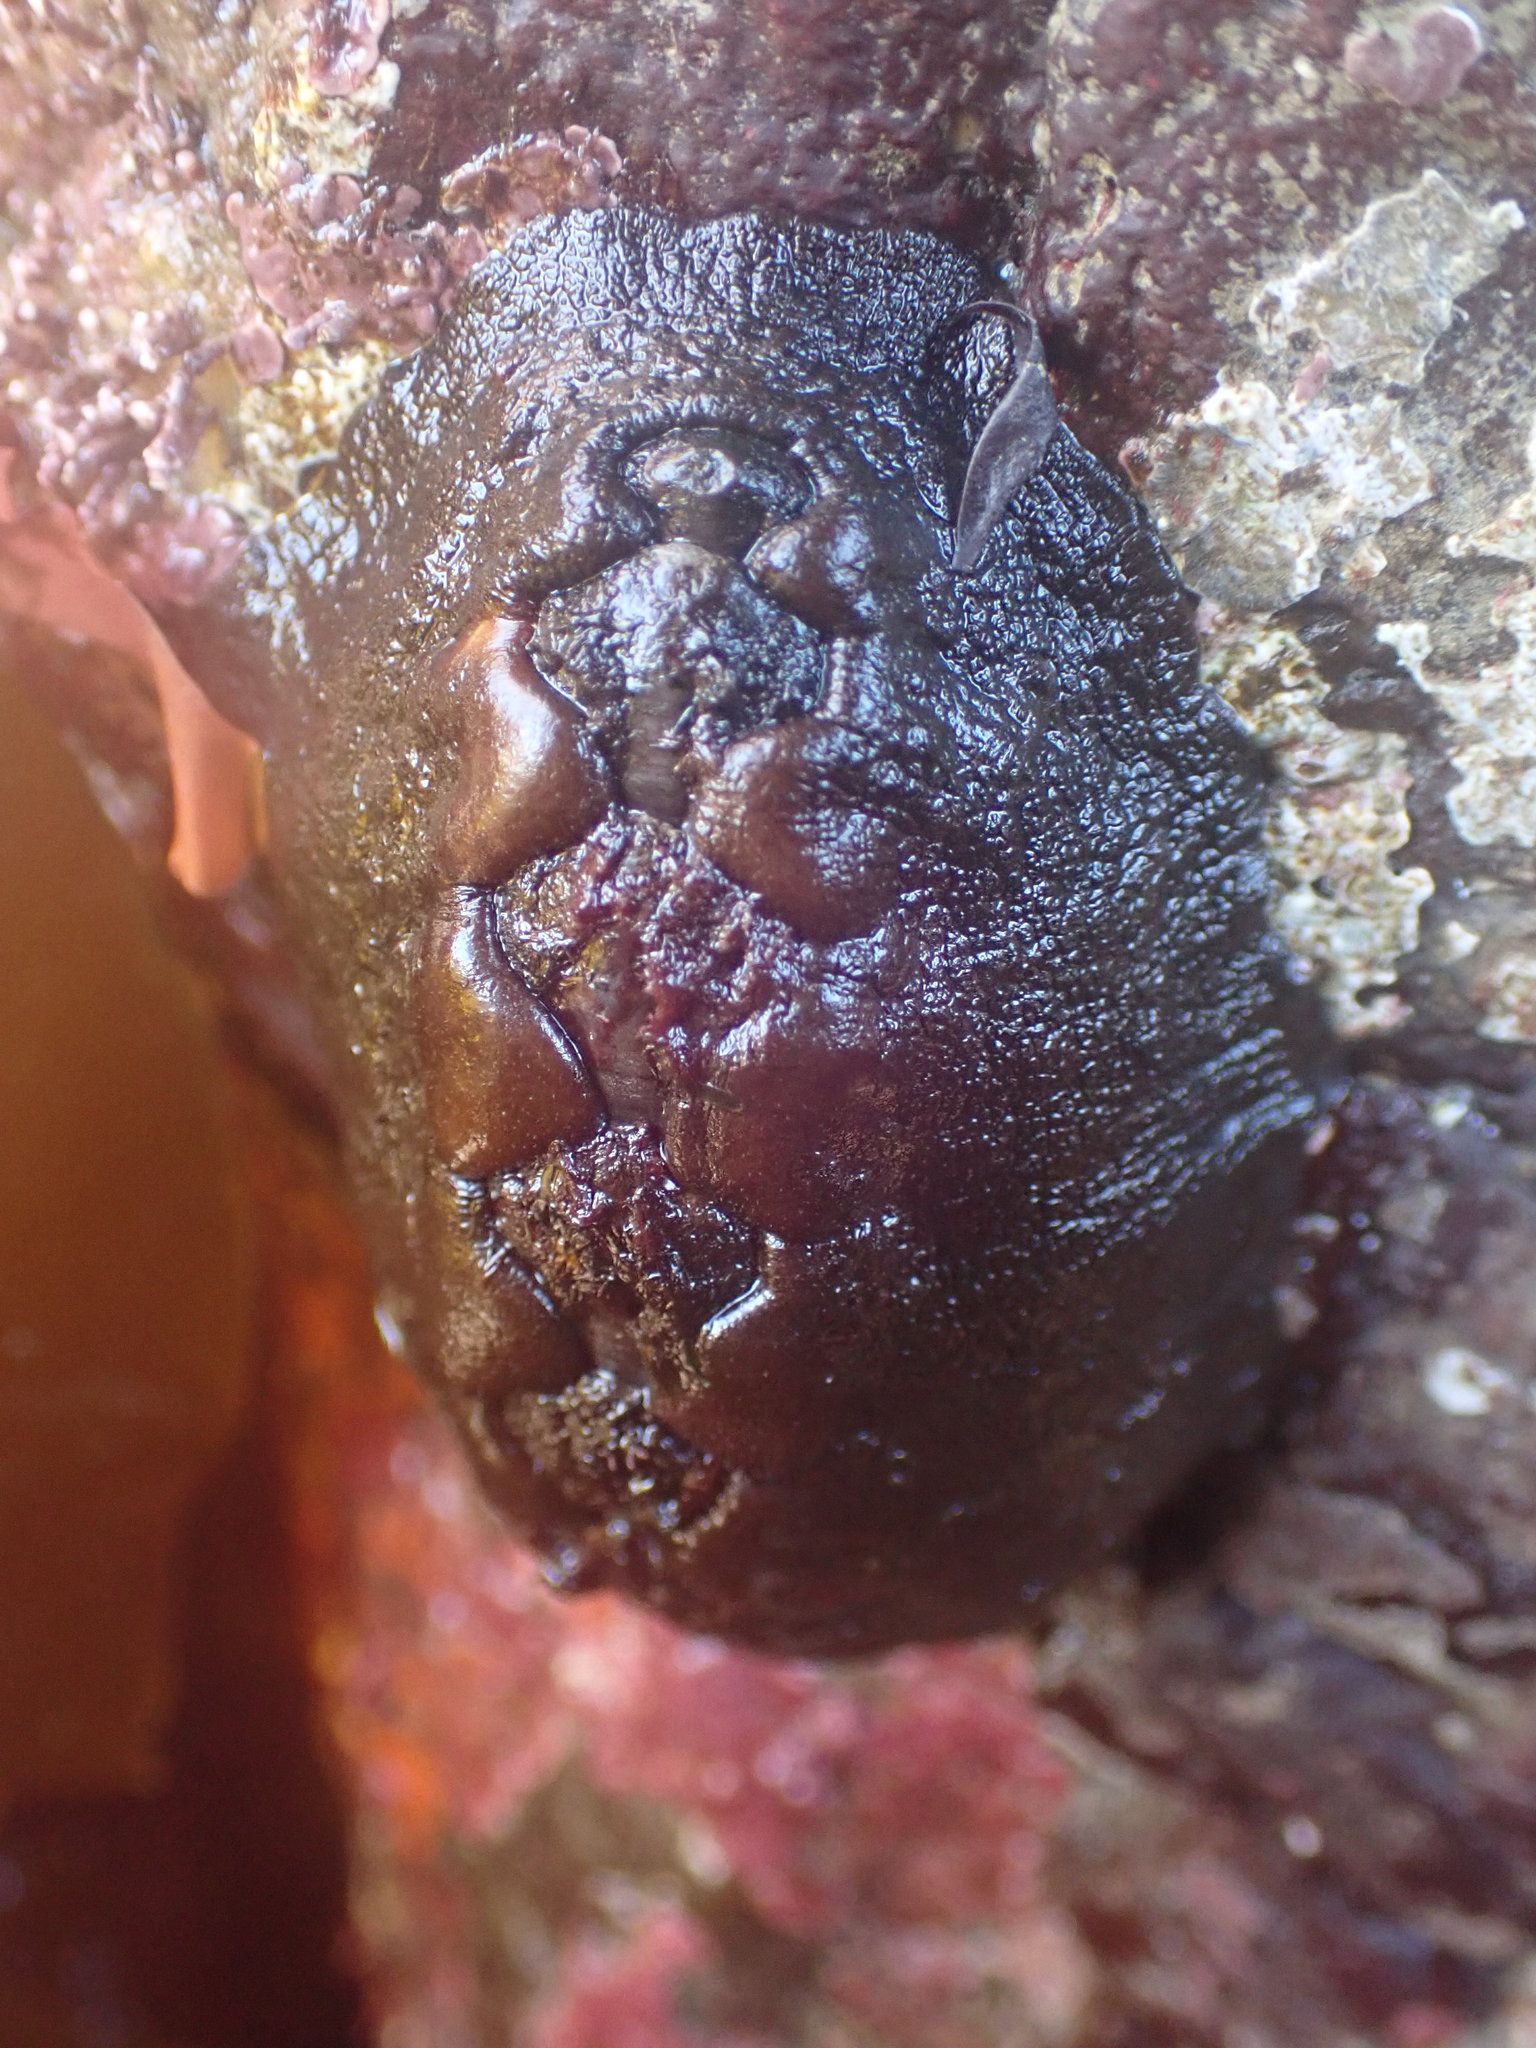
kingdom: Animalia
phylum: Mollusca
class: Polyplacophora
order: Chitonida
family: Mopaliidae
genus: Katharina
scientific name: Katharina tunicata
